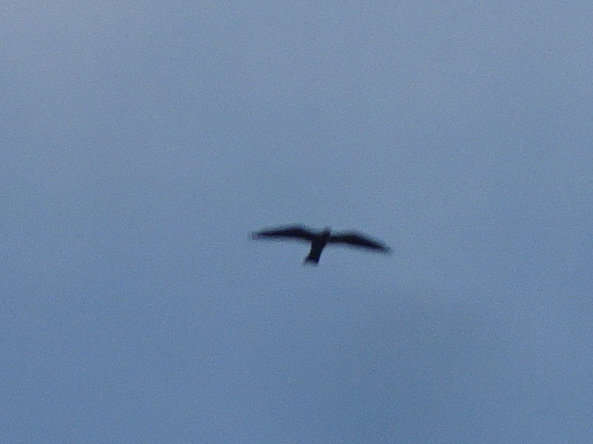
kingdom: Animalia
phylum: Chordata
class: Aves
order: Accipitriformes
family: Accipitridae
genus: Ictinia
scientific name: Ictinia mississippiensis
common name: Mississippi kite
